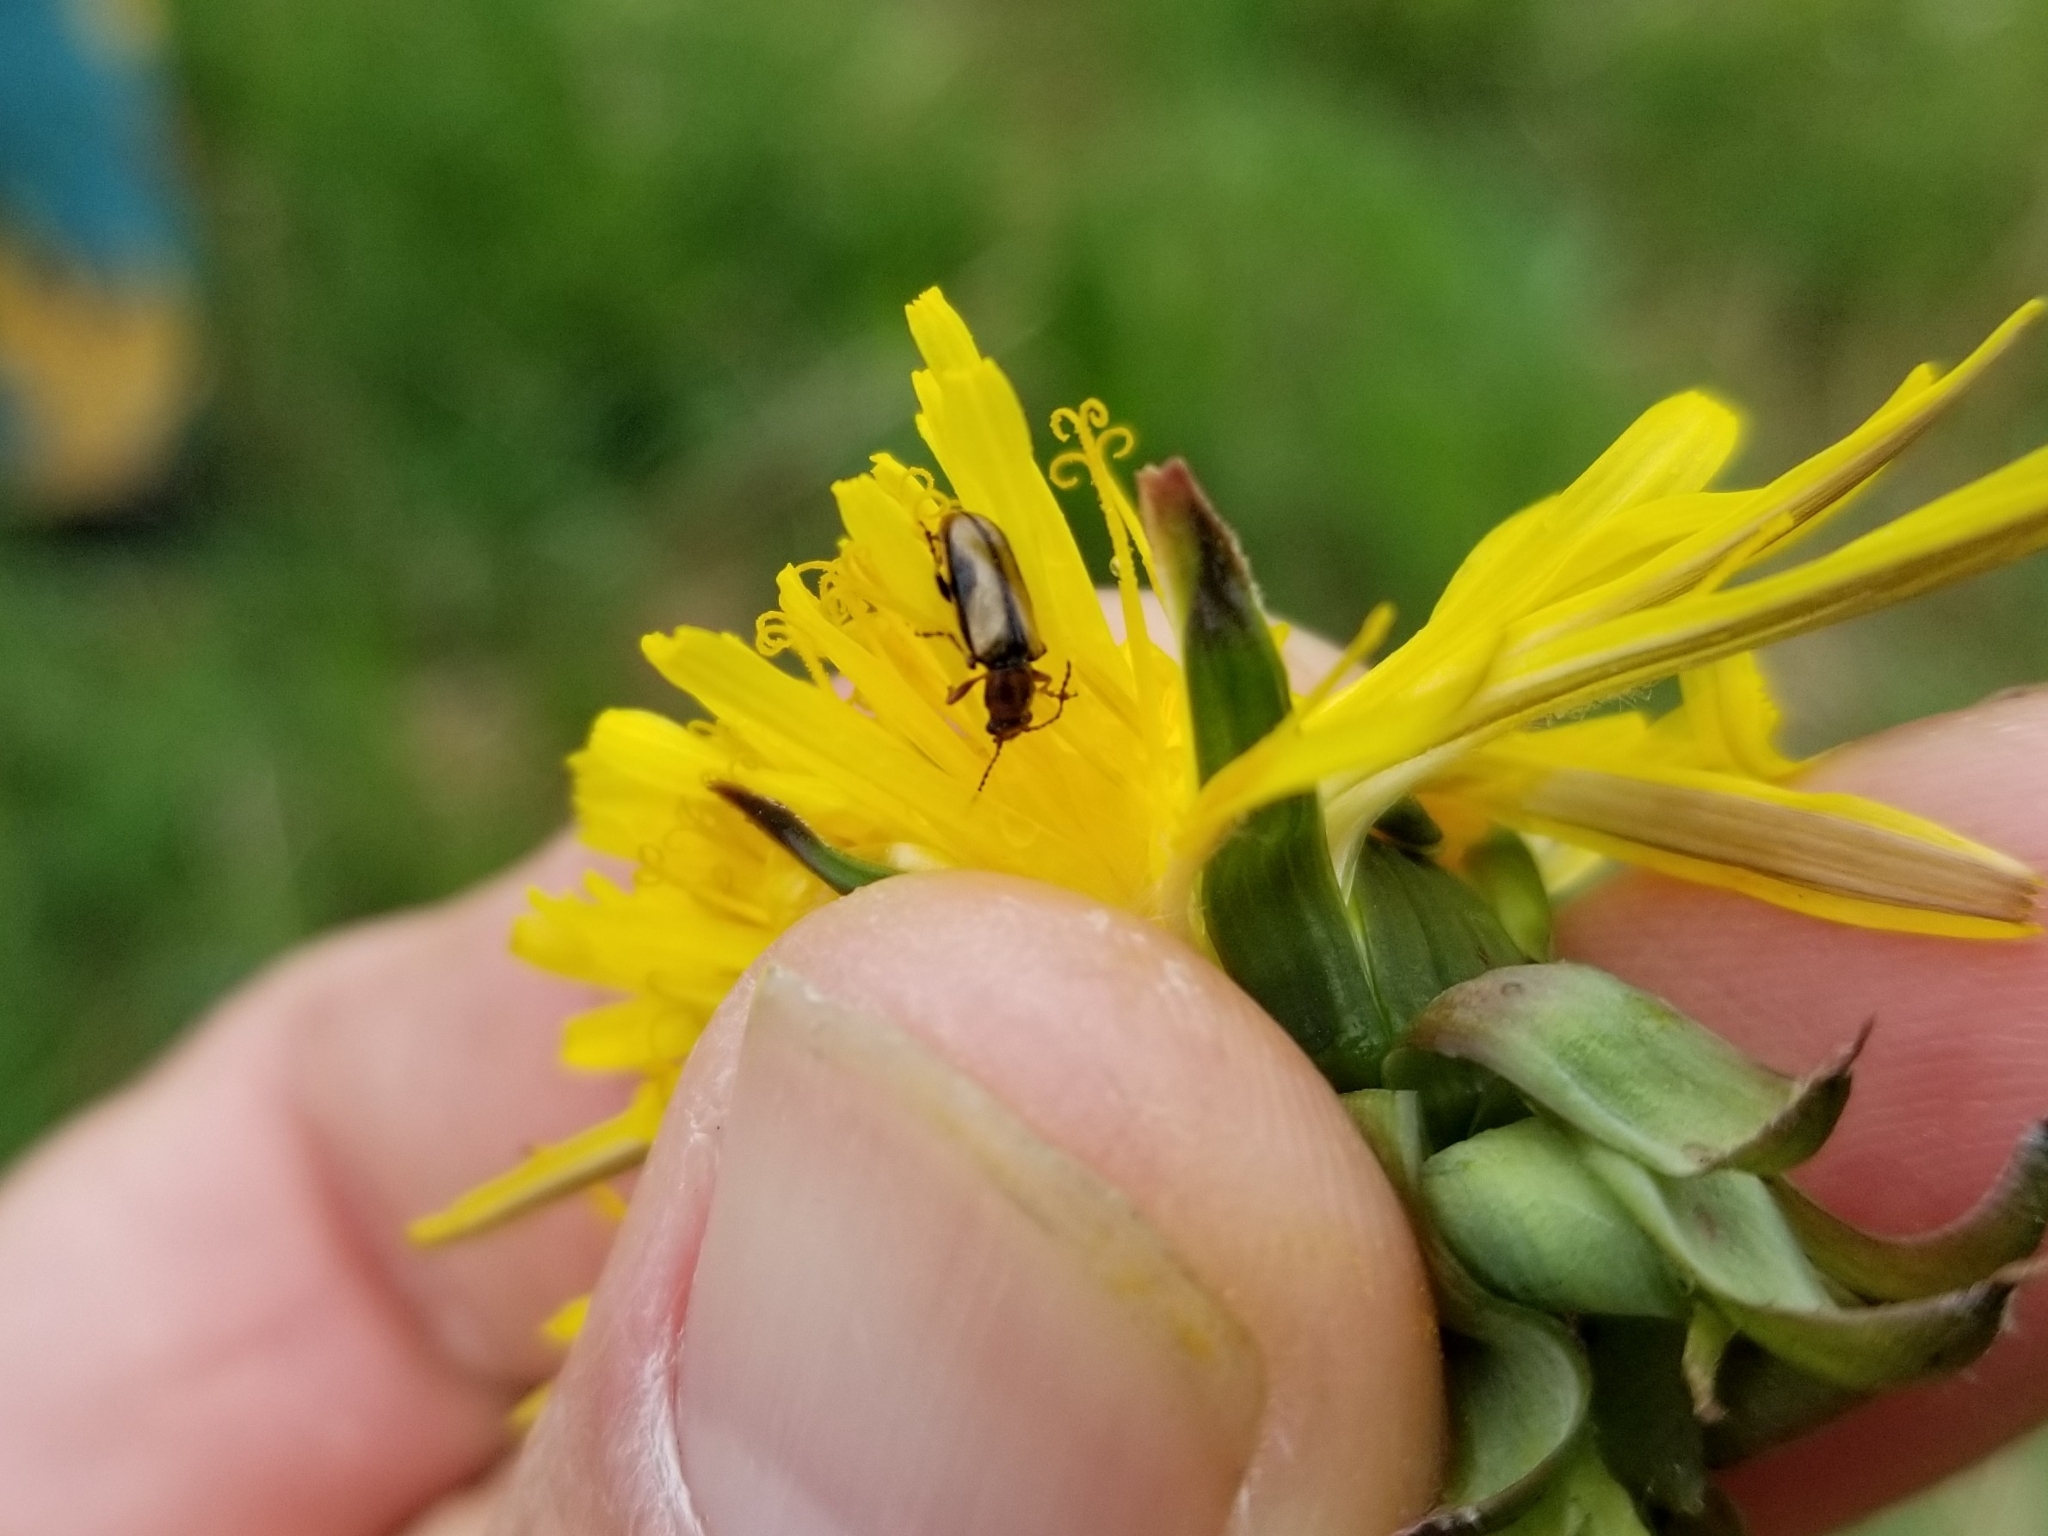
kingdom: Animalia
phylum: Arthropoda
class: Insecta
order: Coleoptera
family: Orsodacnidae
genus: Orsodacne
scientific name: Orsodacne atra
